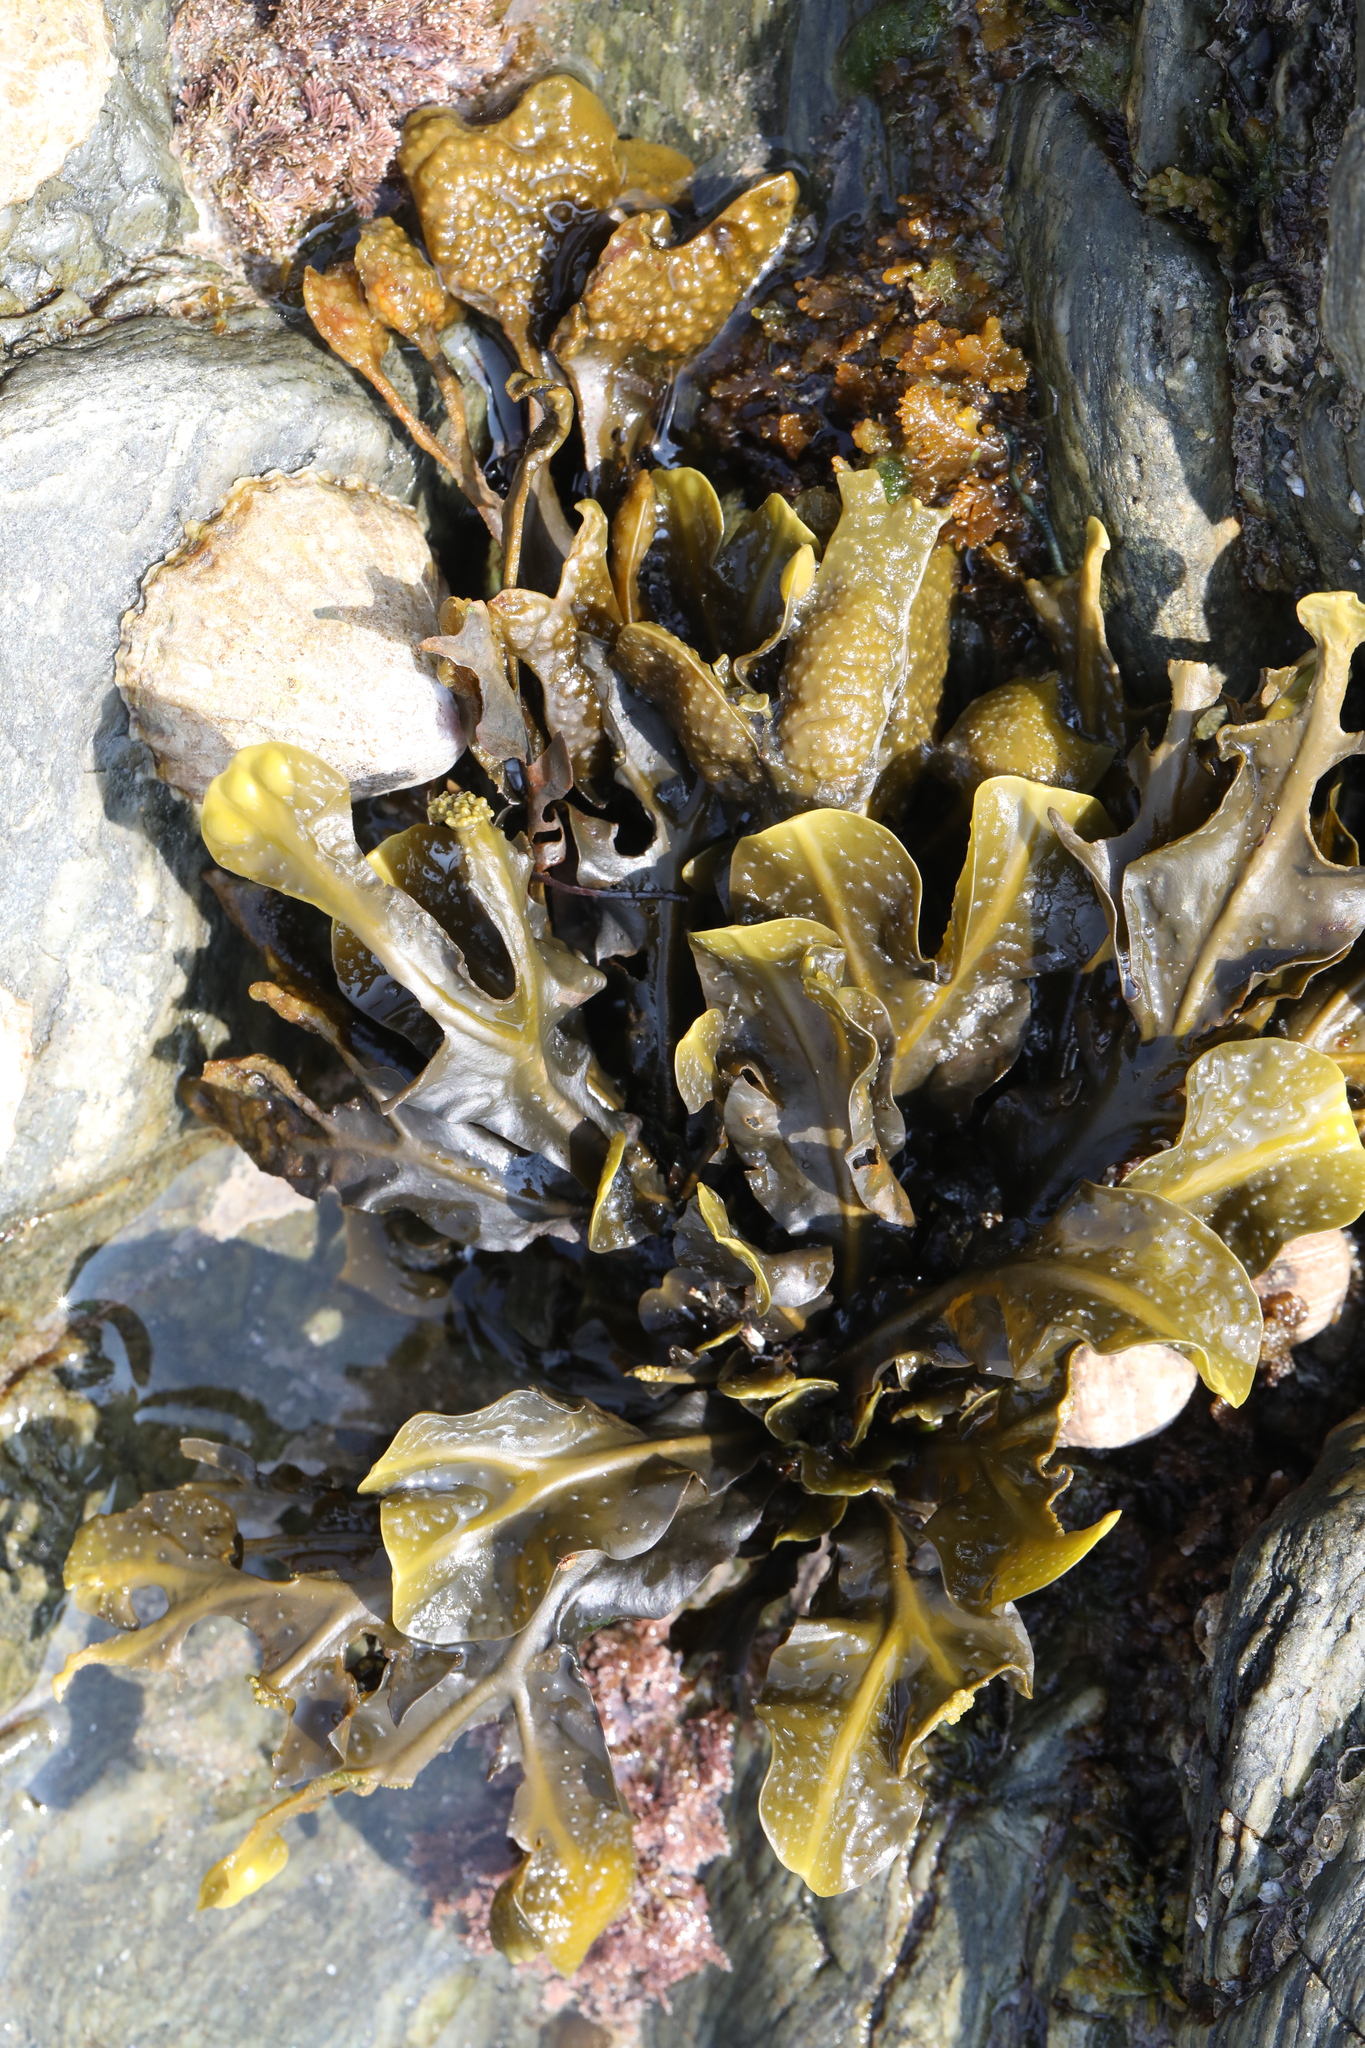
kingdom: Chromista
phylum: Ochrophyta
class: Phaeophyceae
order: Fucales
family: Fucaceae
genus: Fucus
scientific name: Fucus spiralis
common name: Spiral wrack
